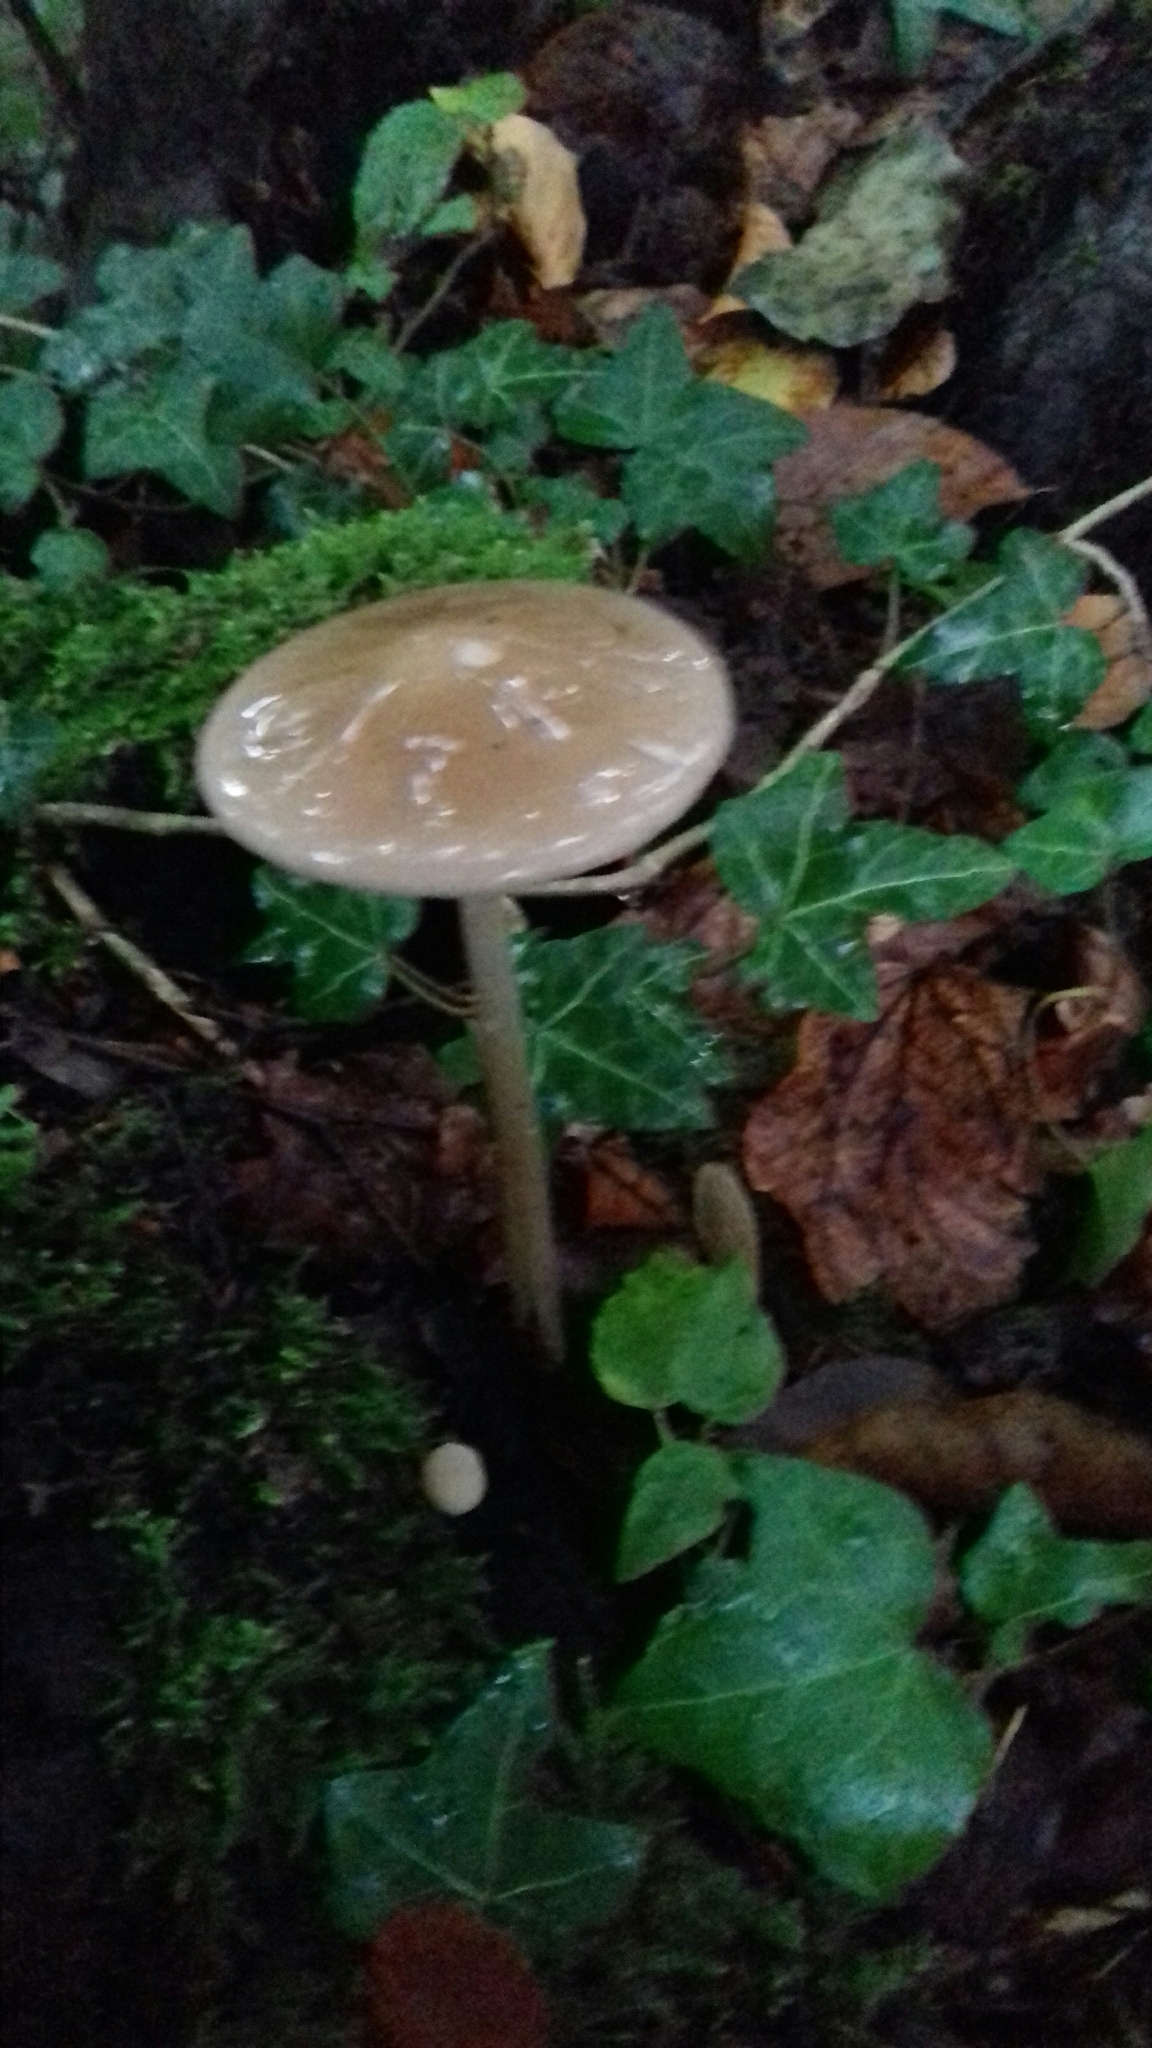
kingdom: Fungi
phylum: Basidiomycota
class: Agaricomycetes
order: Agaricales
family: Physalacriaceae
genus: Hymenopellis
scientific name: Hymenopellis radicata
